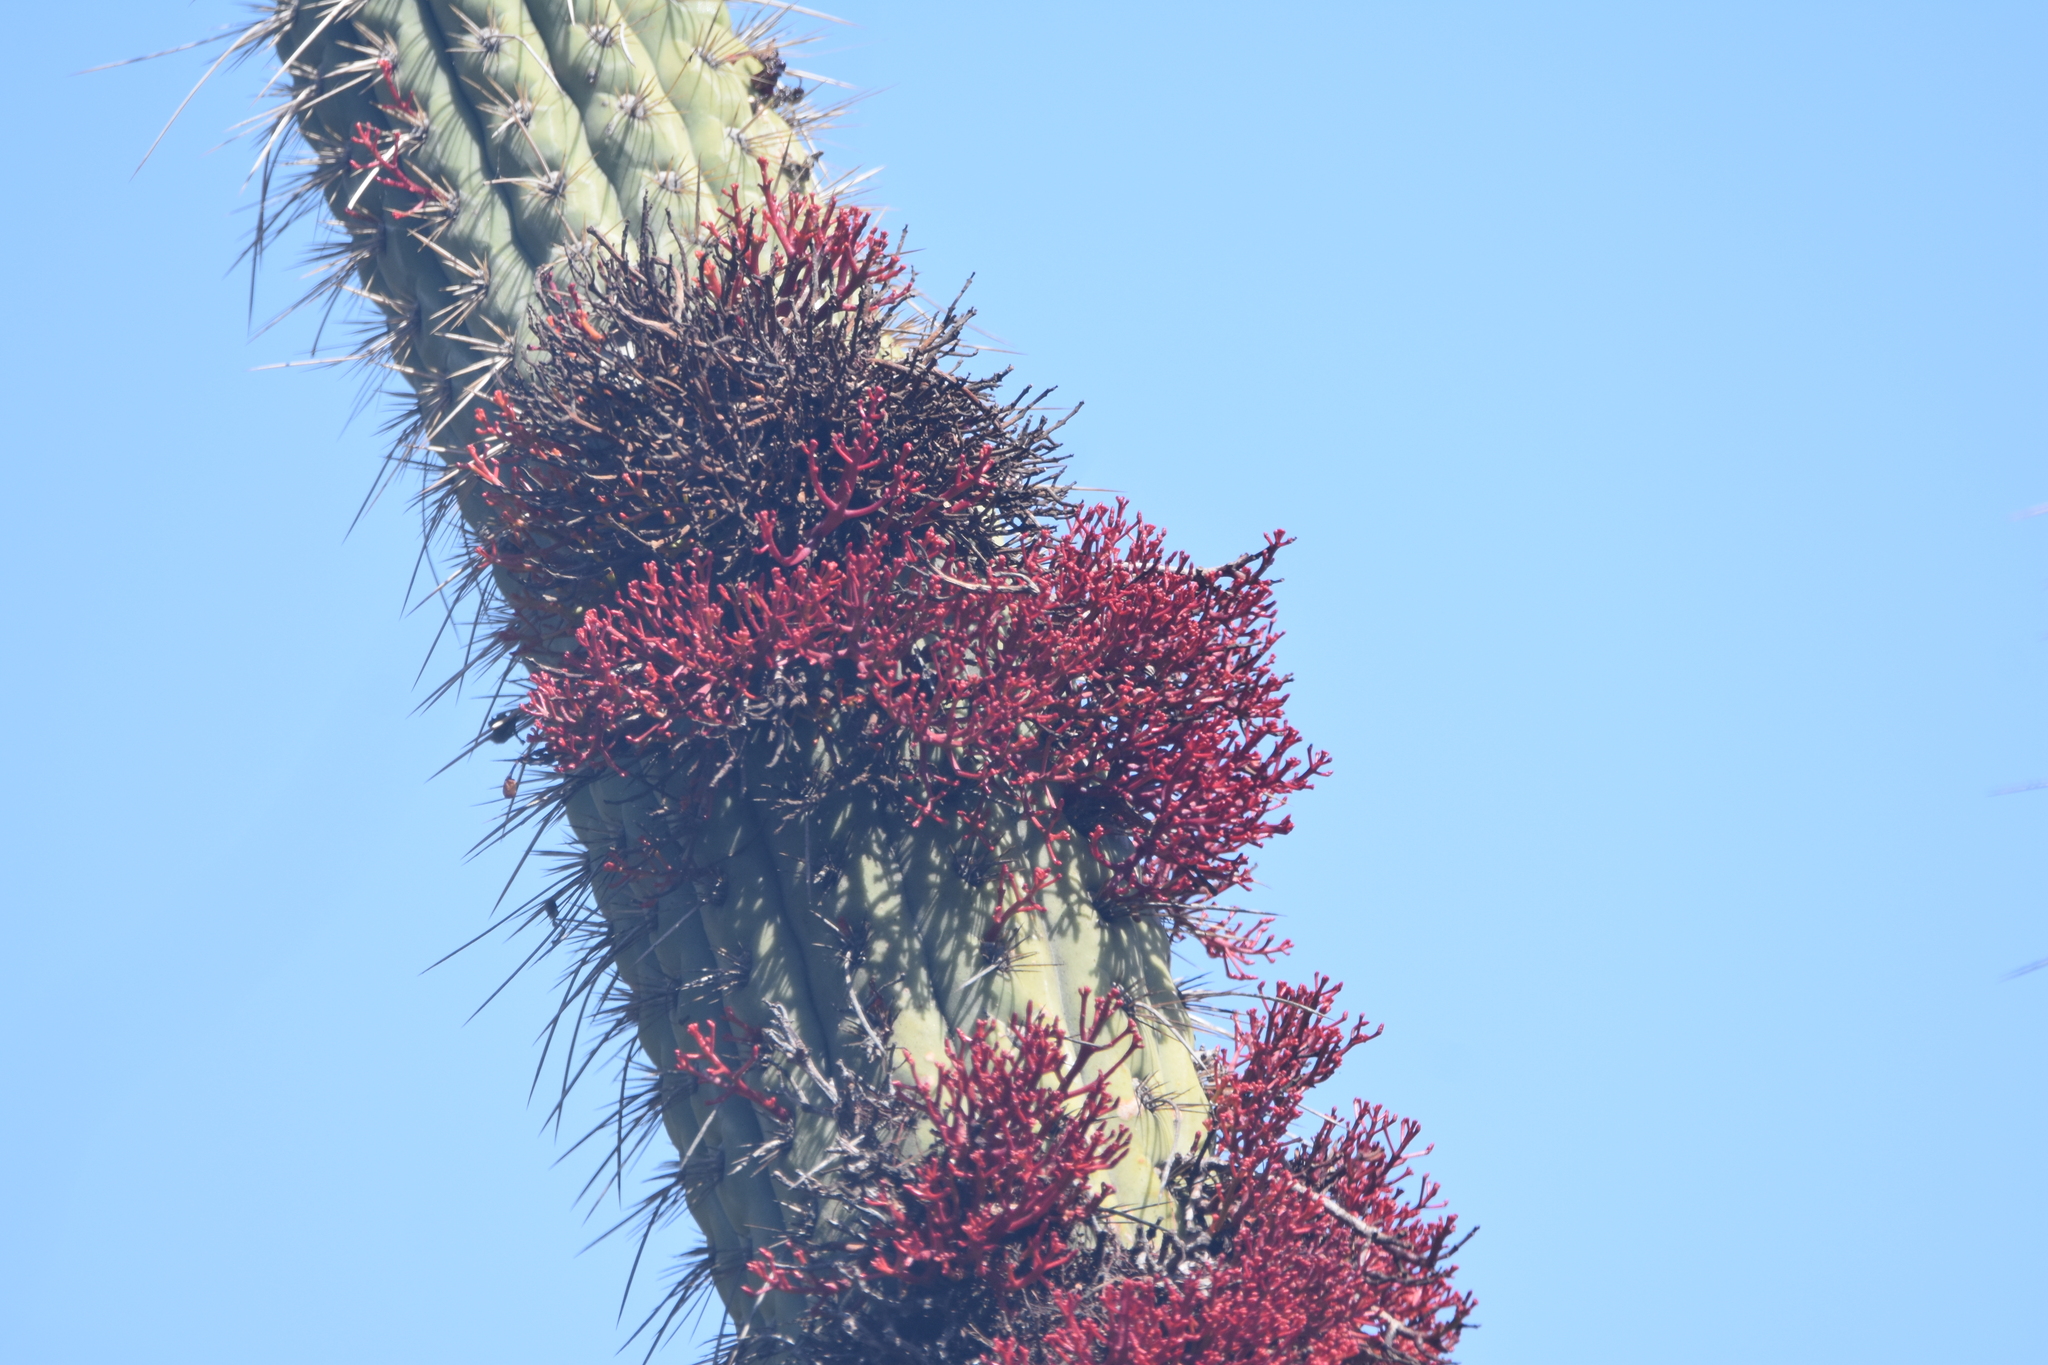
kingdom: Plantae
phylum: Tracheophyta
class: Magnoliopsida
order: Santalales
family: Loranthaceae
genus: Tristerix
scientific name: Tristerix aphyllus
